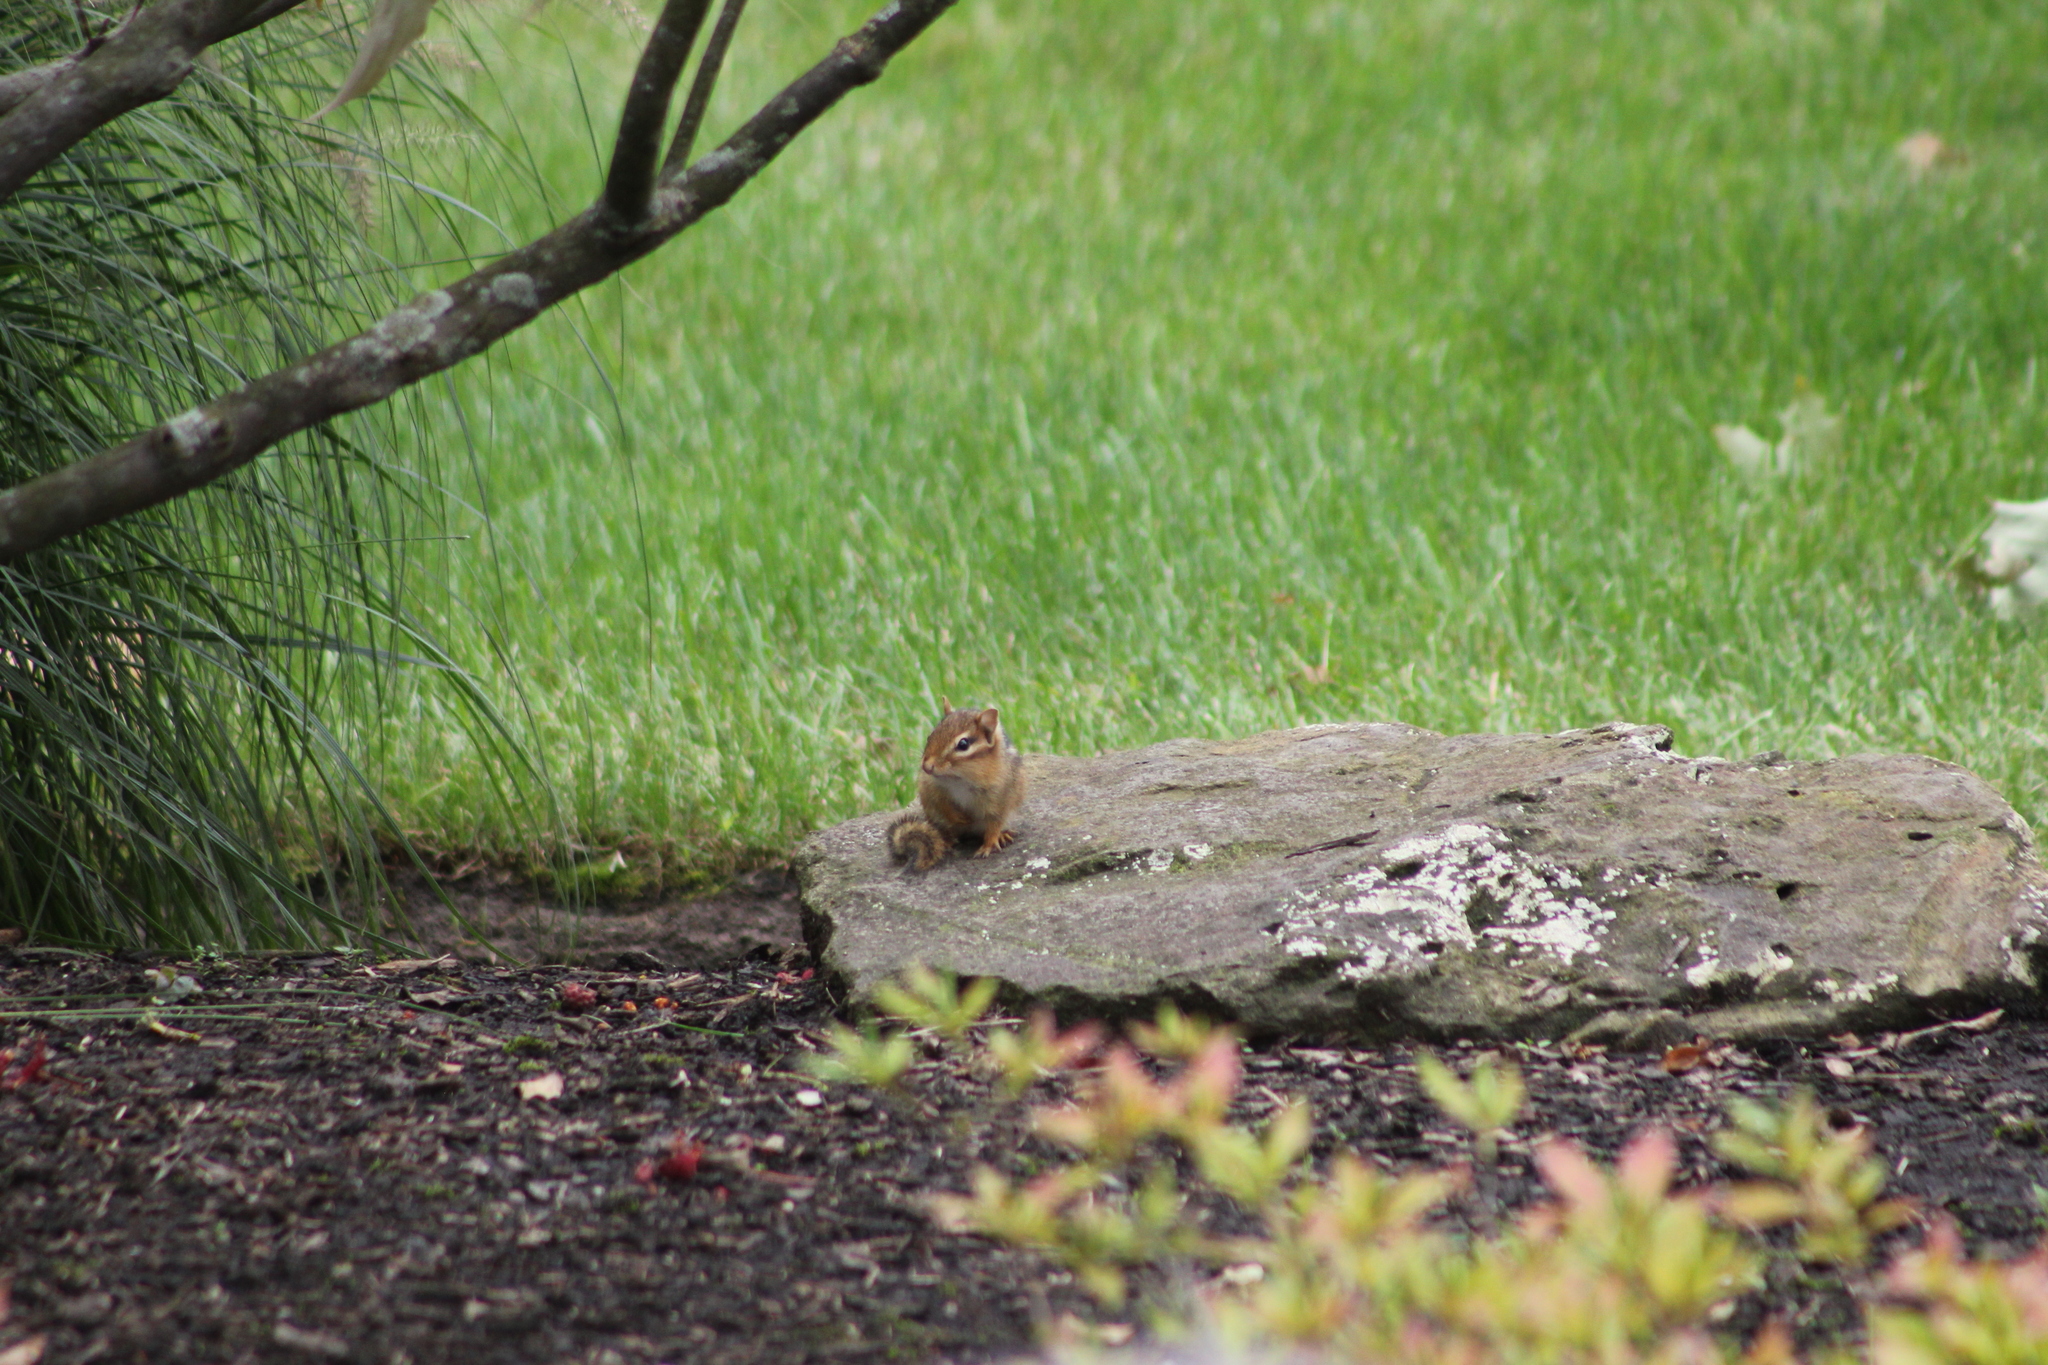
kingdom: Animalia
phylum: Chordata
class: Mammalia
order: Rodentia
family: Sciuridae
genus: Tamias
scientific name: Tamias striatus
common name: Eastern chipmunk
